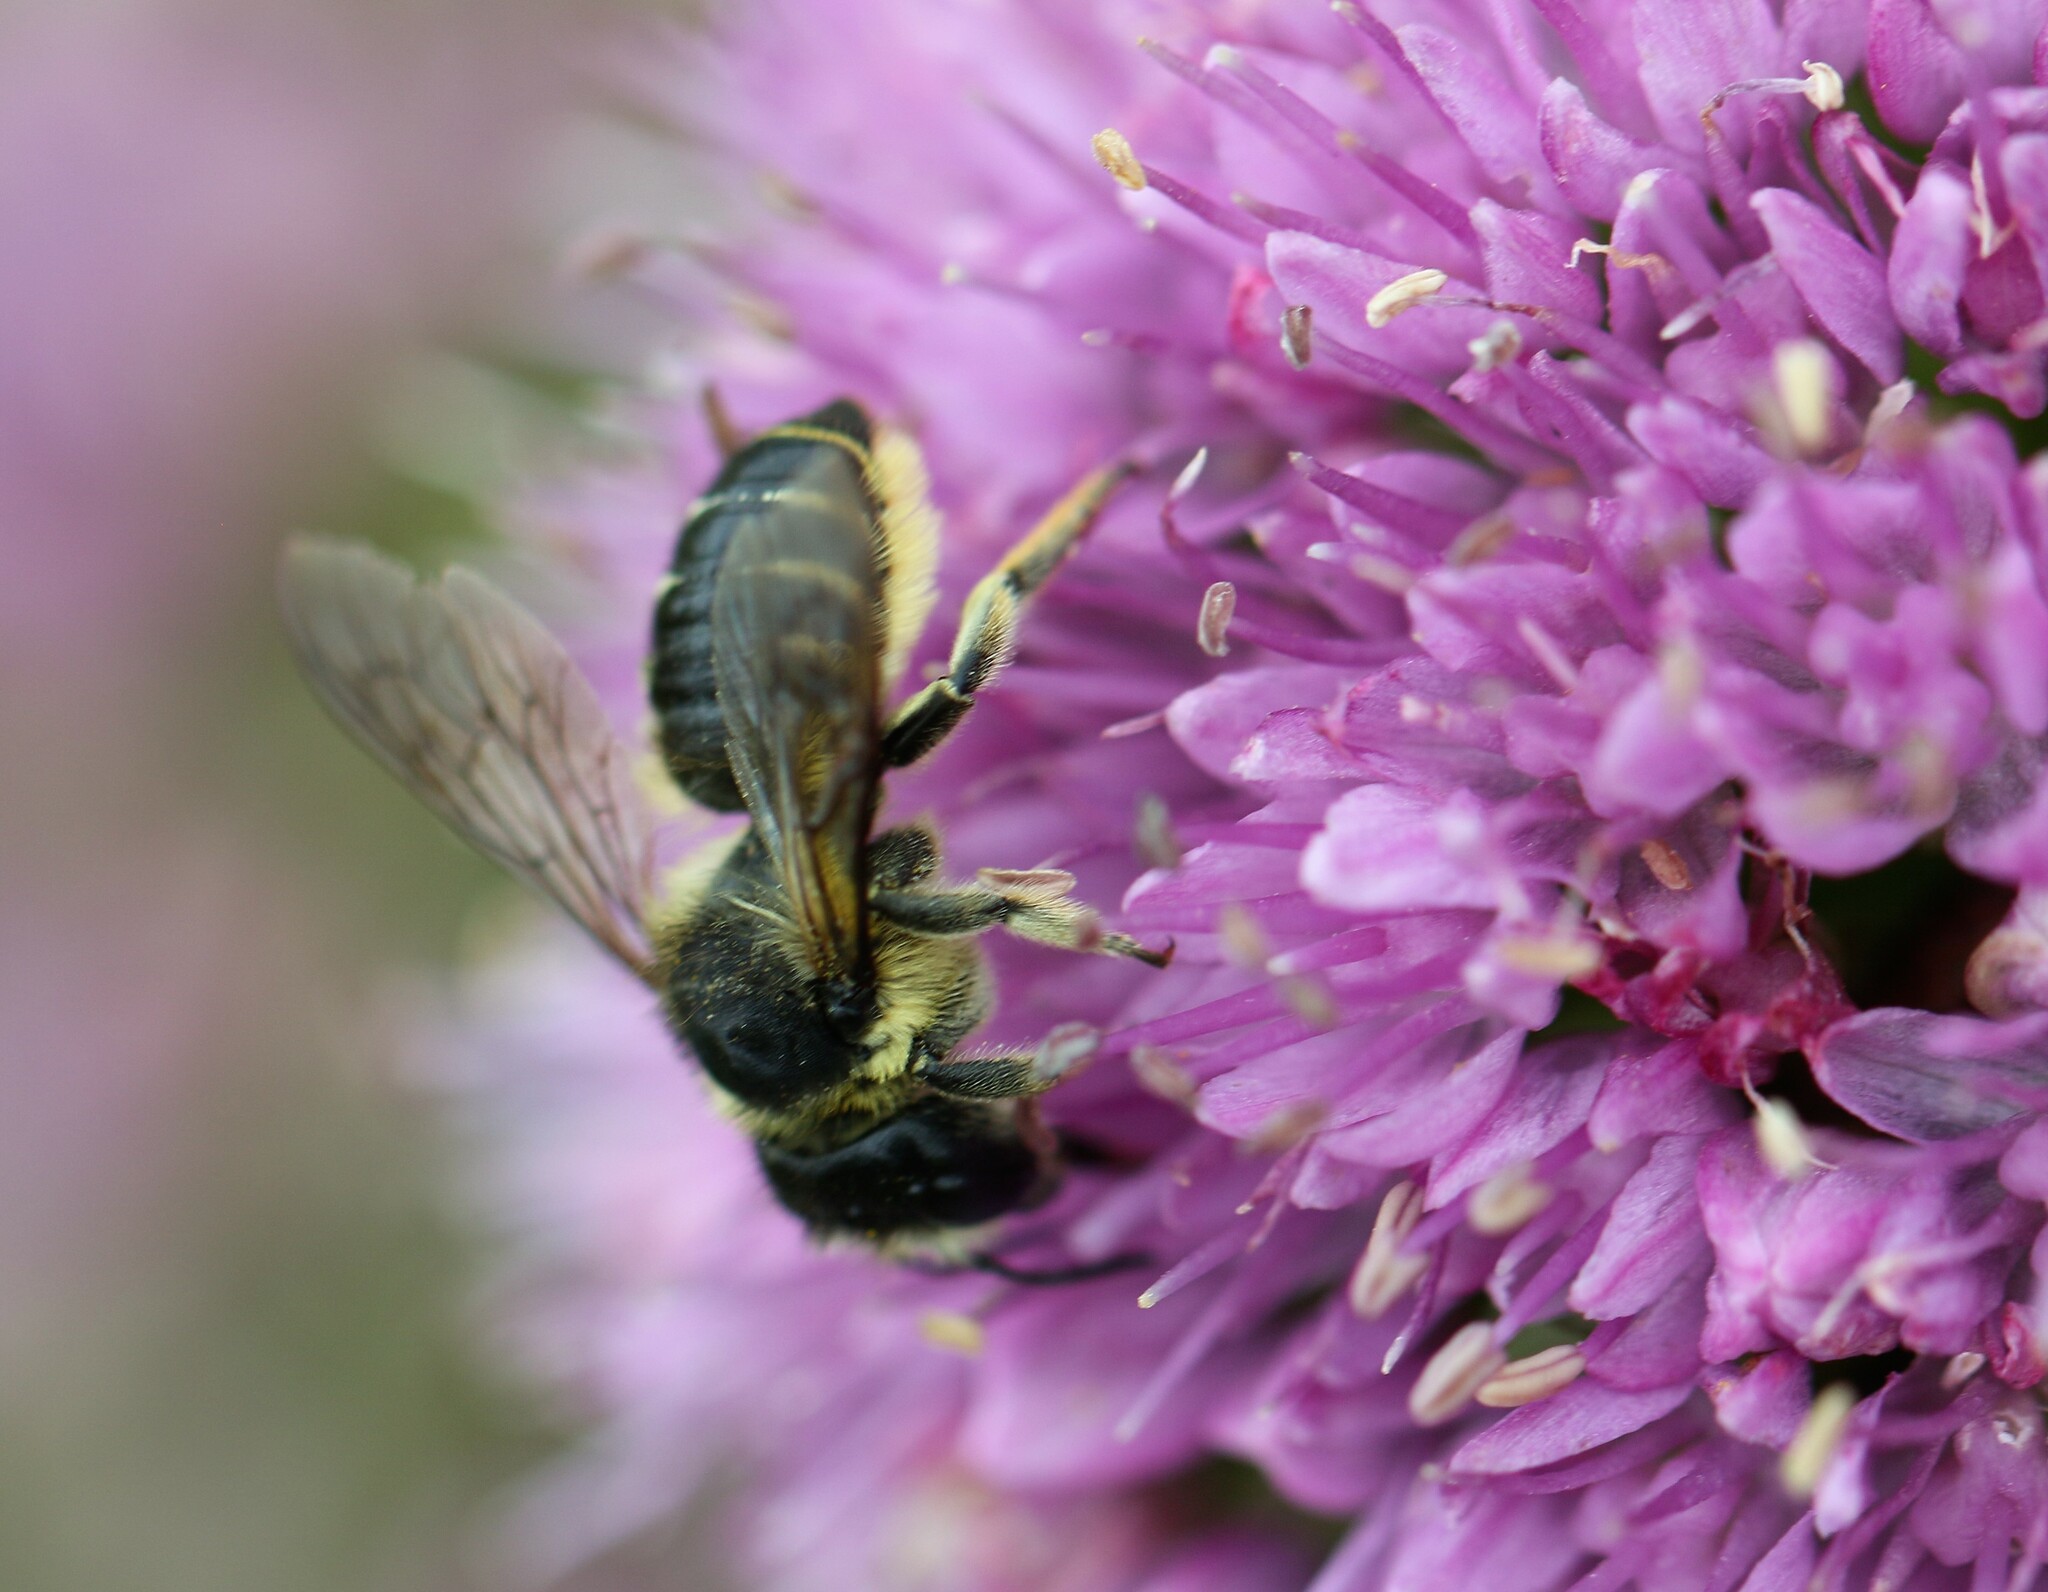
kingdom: Animalia
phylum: Arthropoda
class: Insecta
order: Hymenoptera
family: Megachilidae
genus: Megachile
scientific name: Megachile inermis
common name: Unarmed leafcutter bee
